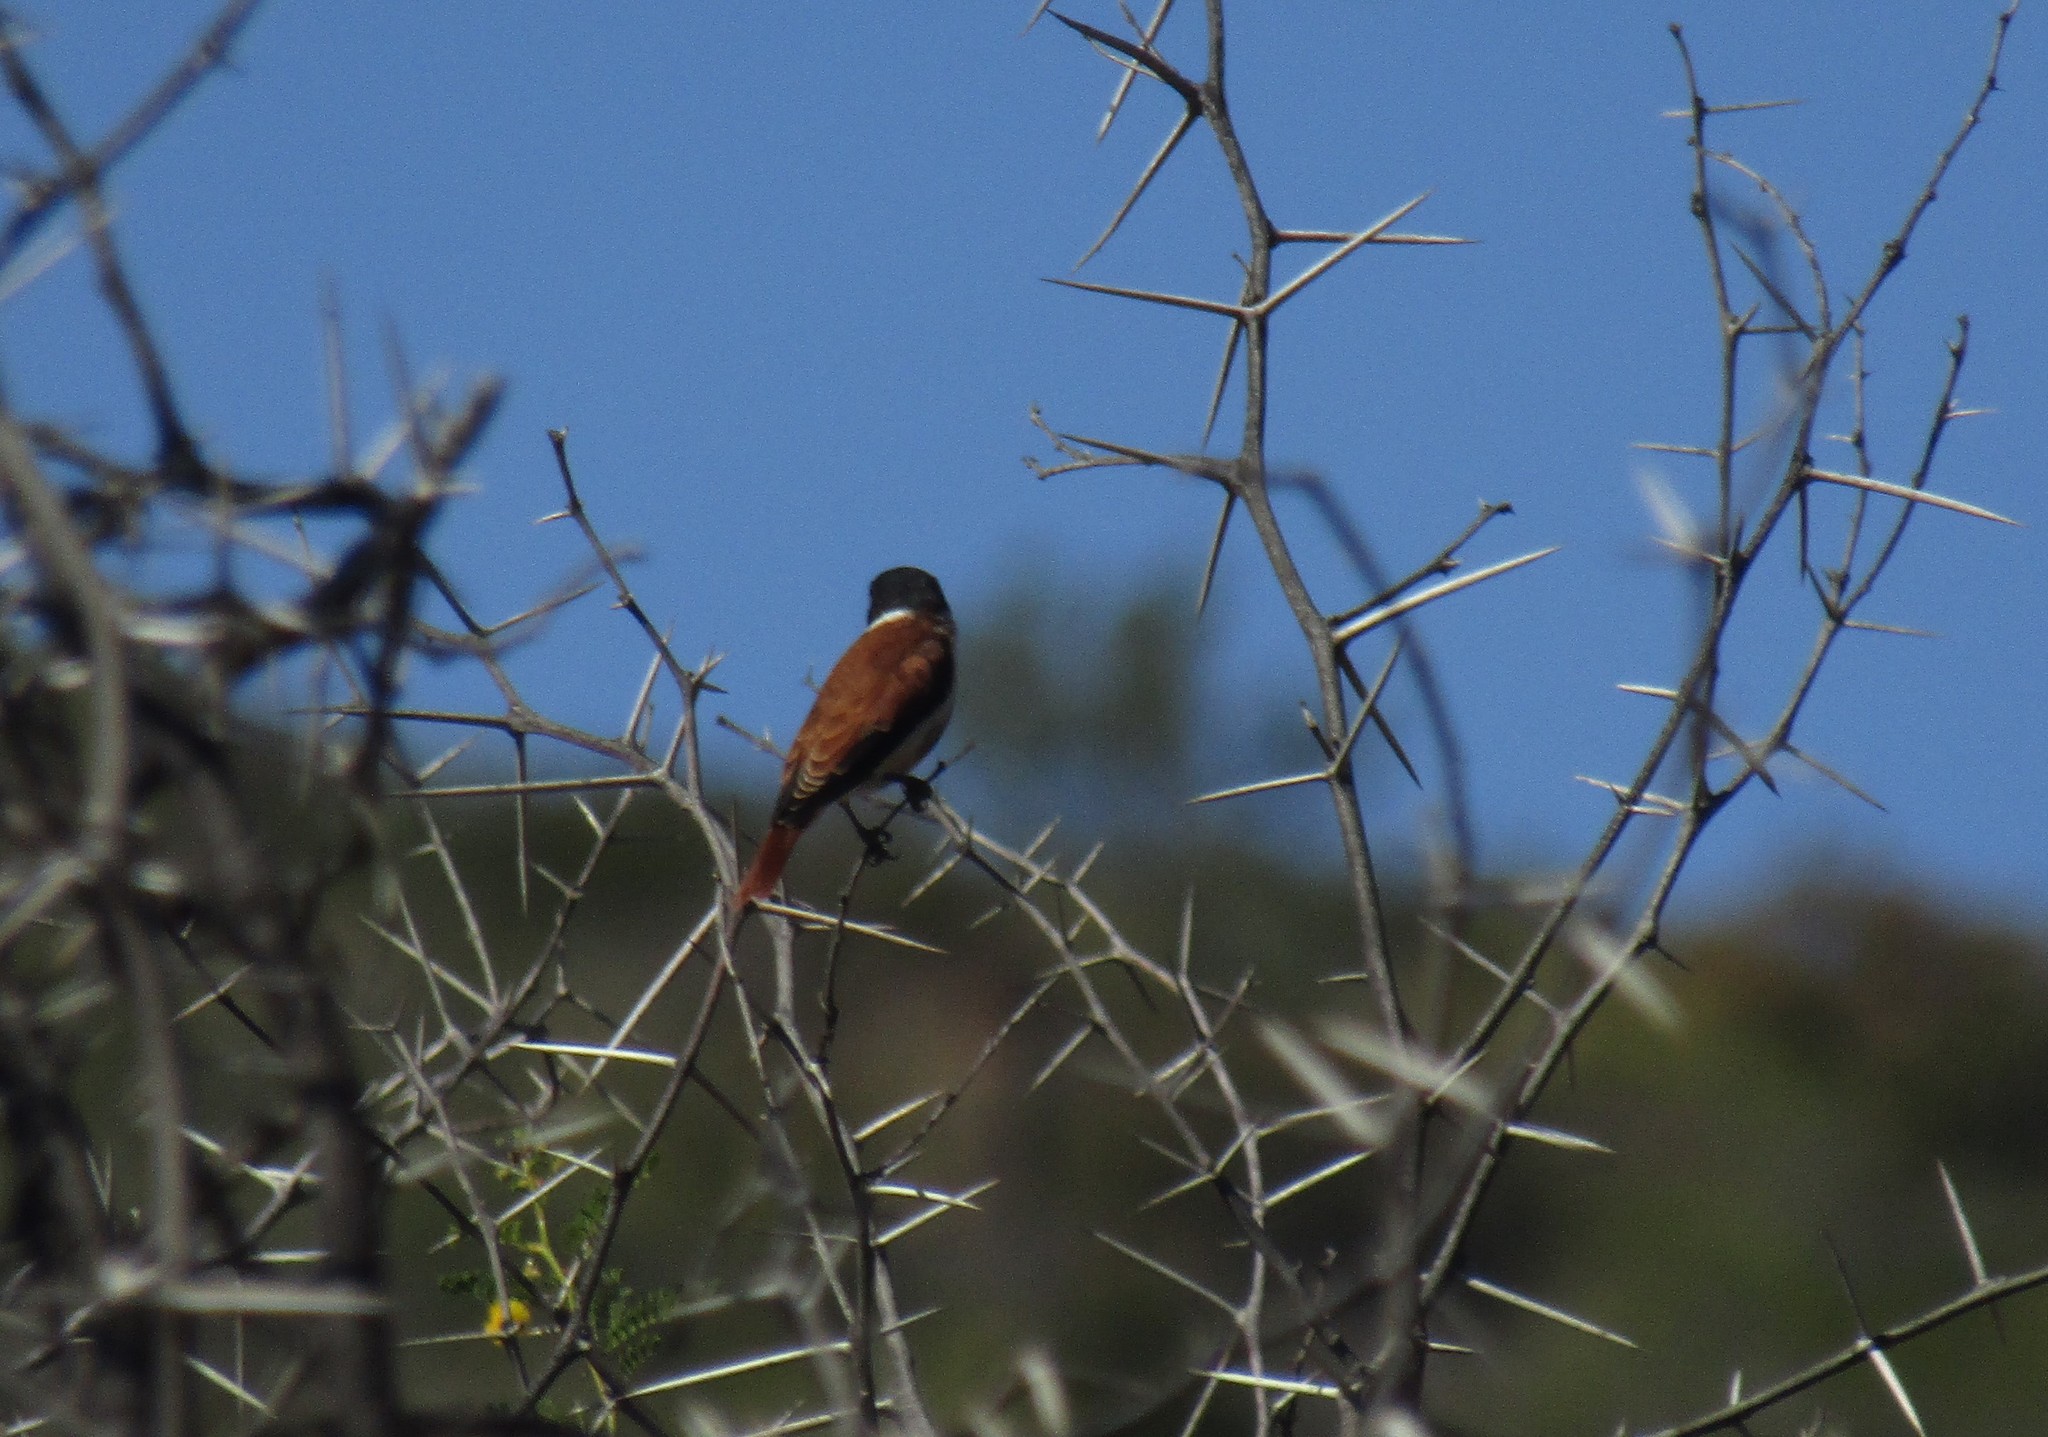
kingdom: Animalia
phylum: Chordata
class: Aves
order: Passeriformes
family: Fringillidae
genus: Serinus
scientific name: Serinus alario
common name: Black-headed canary
